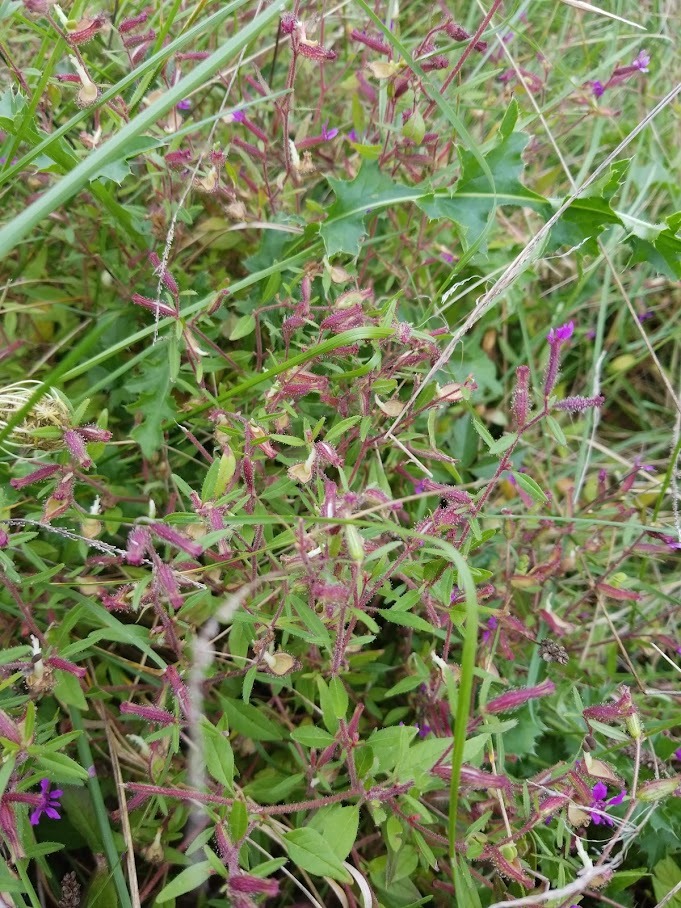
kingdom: Plantae
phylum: Tracheophyta
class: Magnoliopsida
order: Myrtales
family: Lythraceae
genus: Cuphea
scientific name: Cuphea viscosissima
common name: Clammy cuphea
